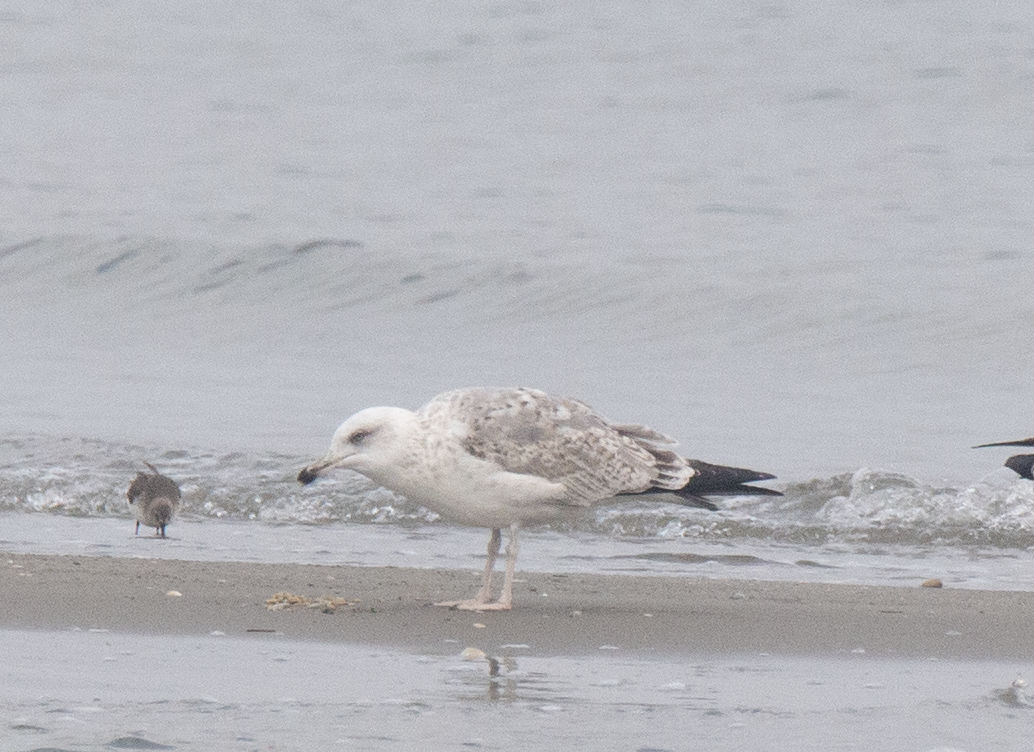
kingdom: Animalia
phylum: Chordata
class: Aves
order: Charadriiformes
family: Laridae
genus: Larus
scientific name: Larus michahellis
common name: Yellow-legged gull
